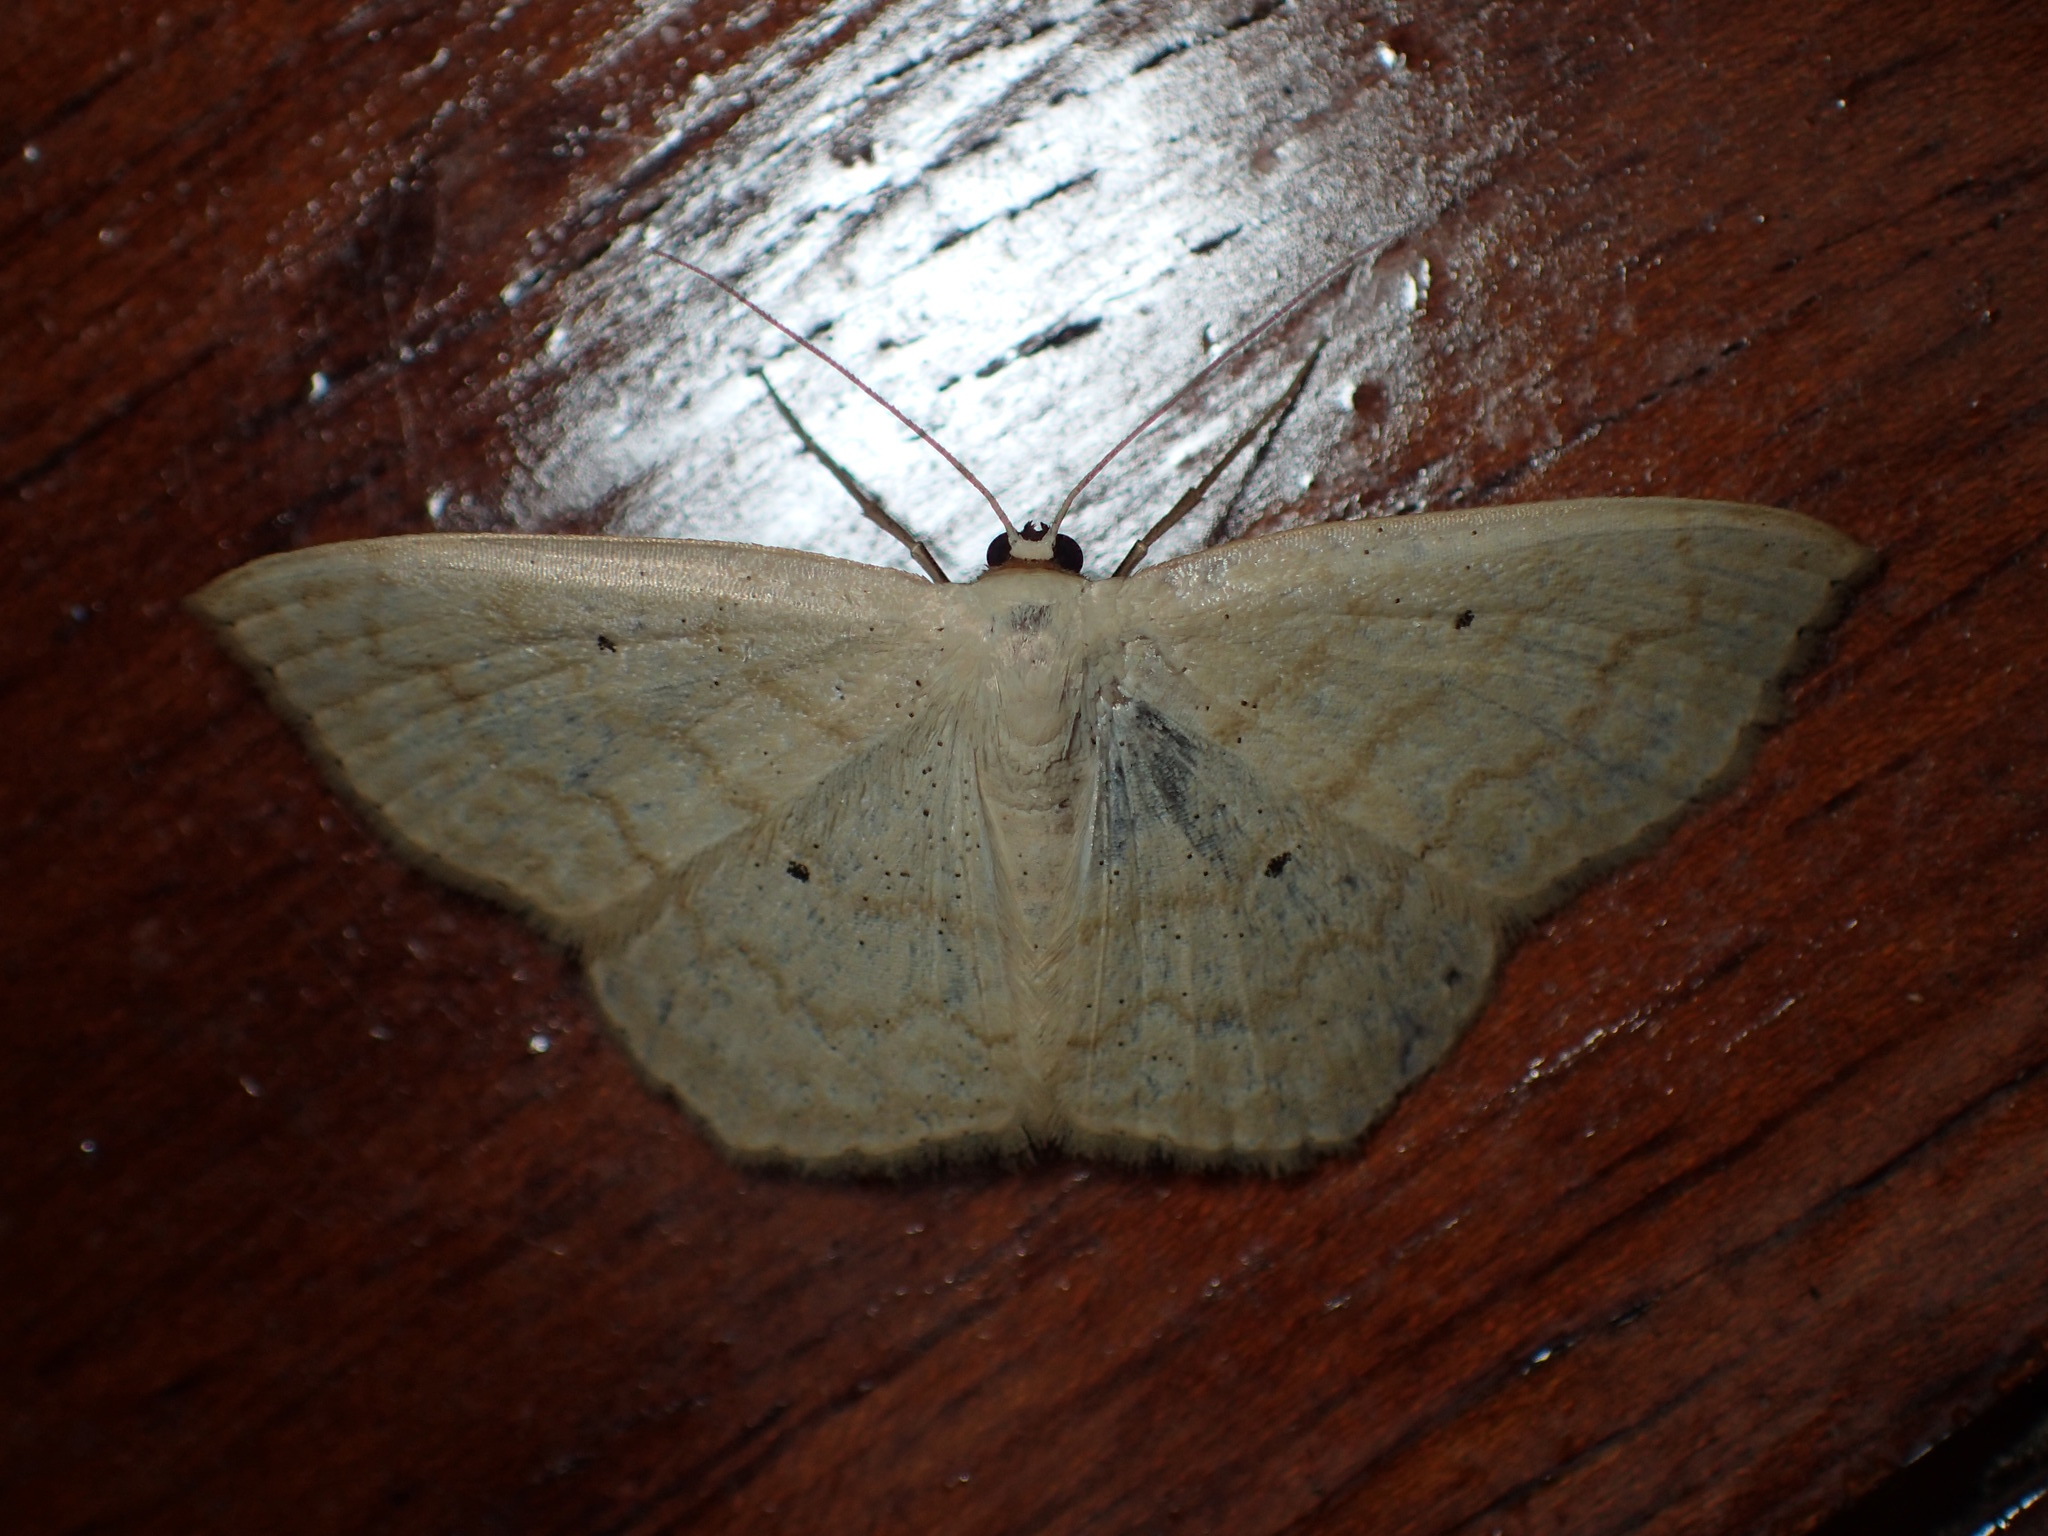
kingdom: Animalia
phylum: Arthropoda
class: Insecta
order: Lepidoptera
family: Geometridae
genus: Scopula
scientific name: Scopula limboundata
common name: Large lace border
